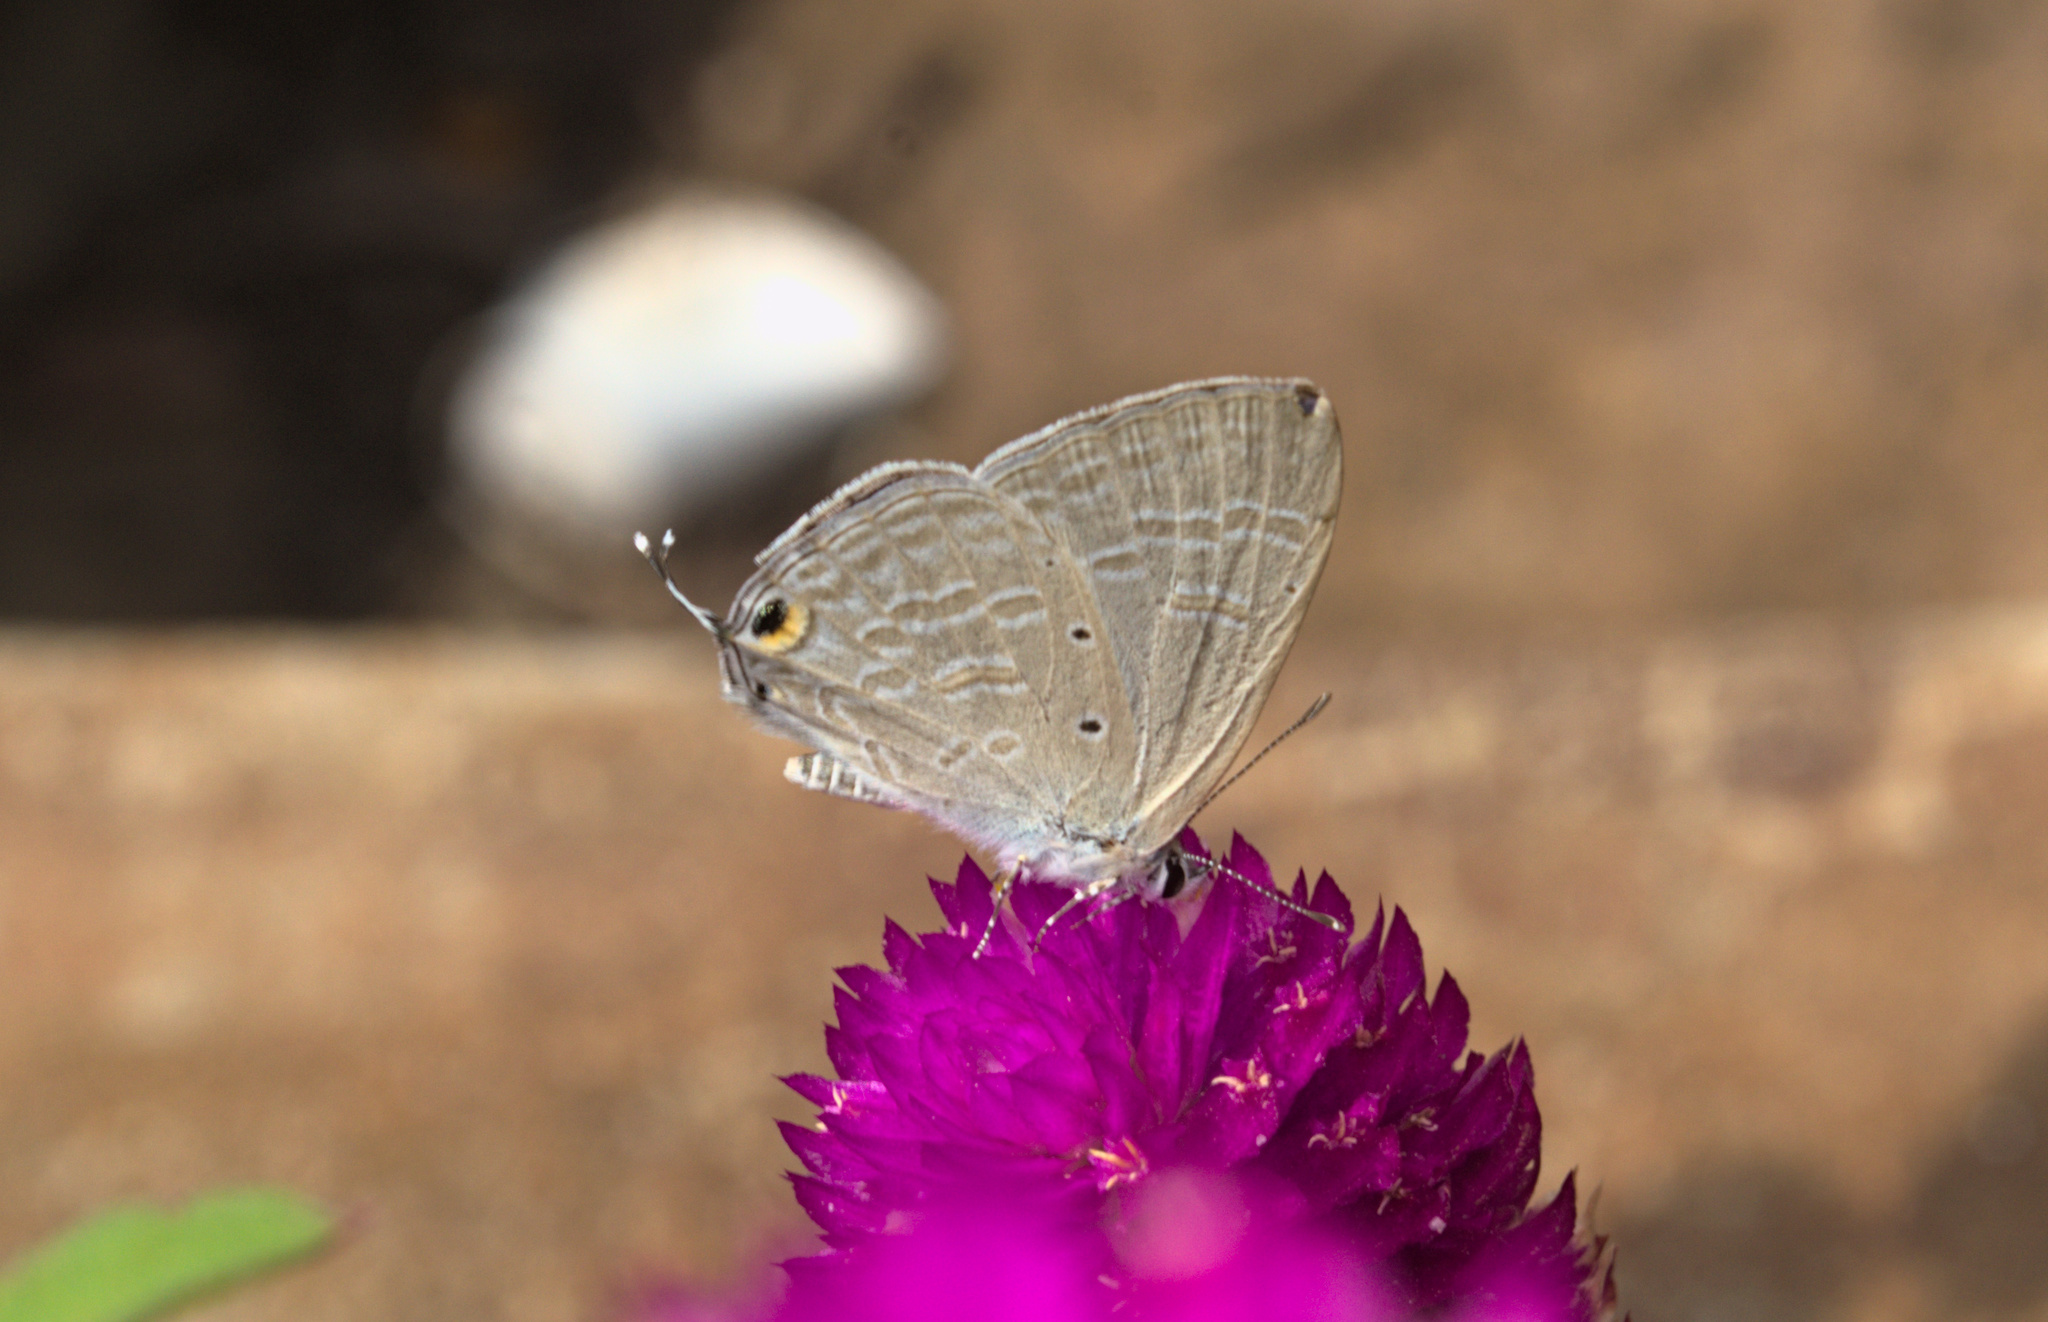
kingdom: Animalia
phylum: Arthropoda
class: Insecta
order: Lepidoptera
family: Lycaenidae
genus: Catochrysops
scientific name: Catochrysops strabo
